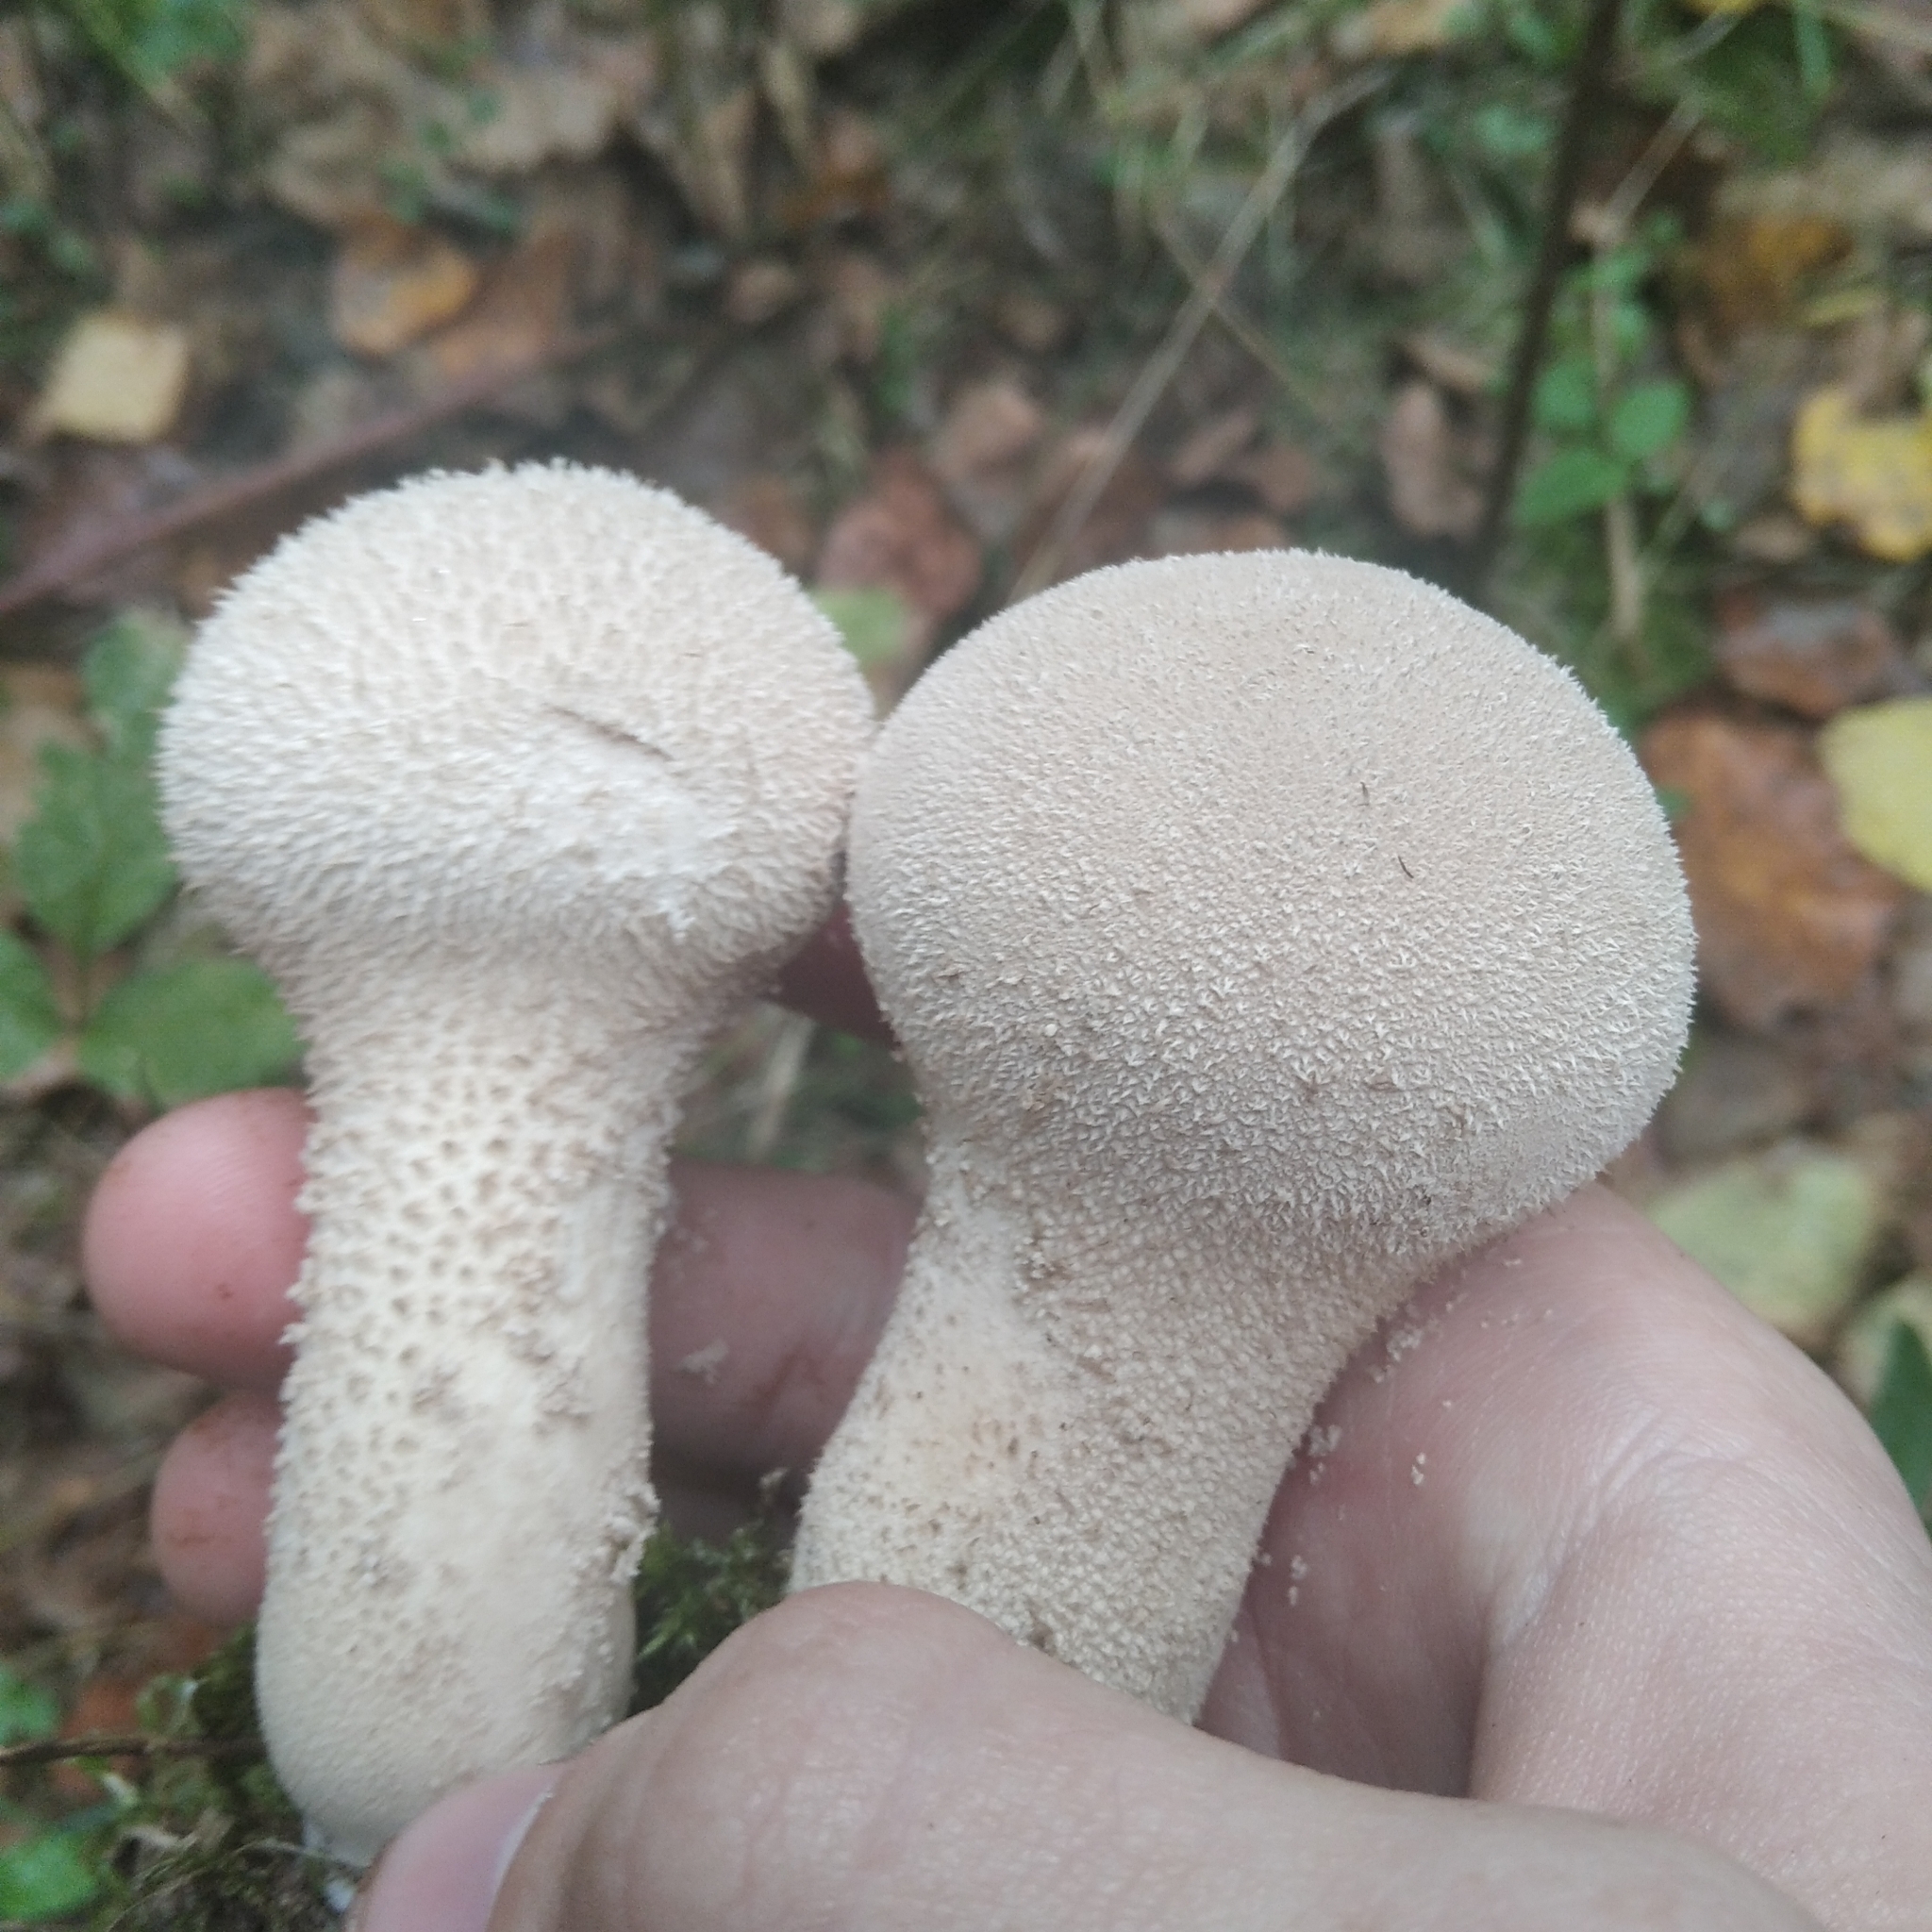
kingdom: Fungi
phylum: Basidiomycota
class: Agaricomycetes
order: Agaricales
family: Lycoperdaceae
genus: Lycoperdon
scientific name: Lycoperdon excipuliforme
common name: Pestle puffball
